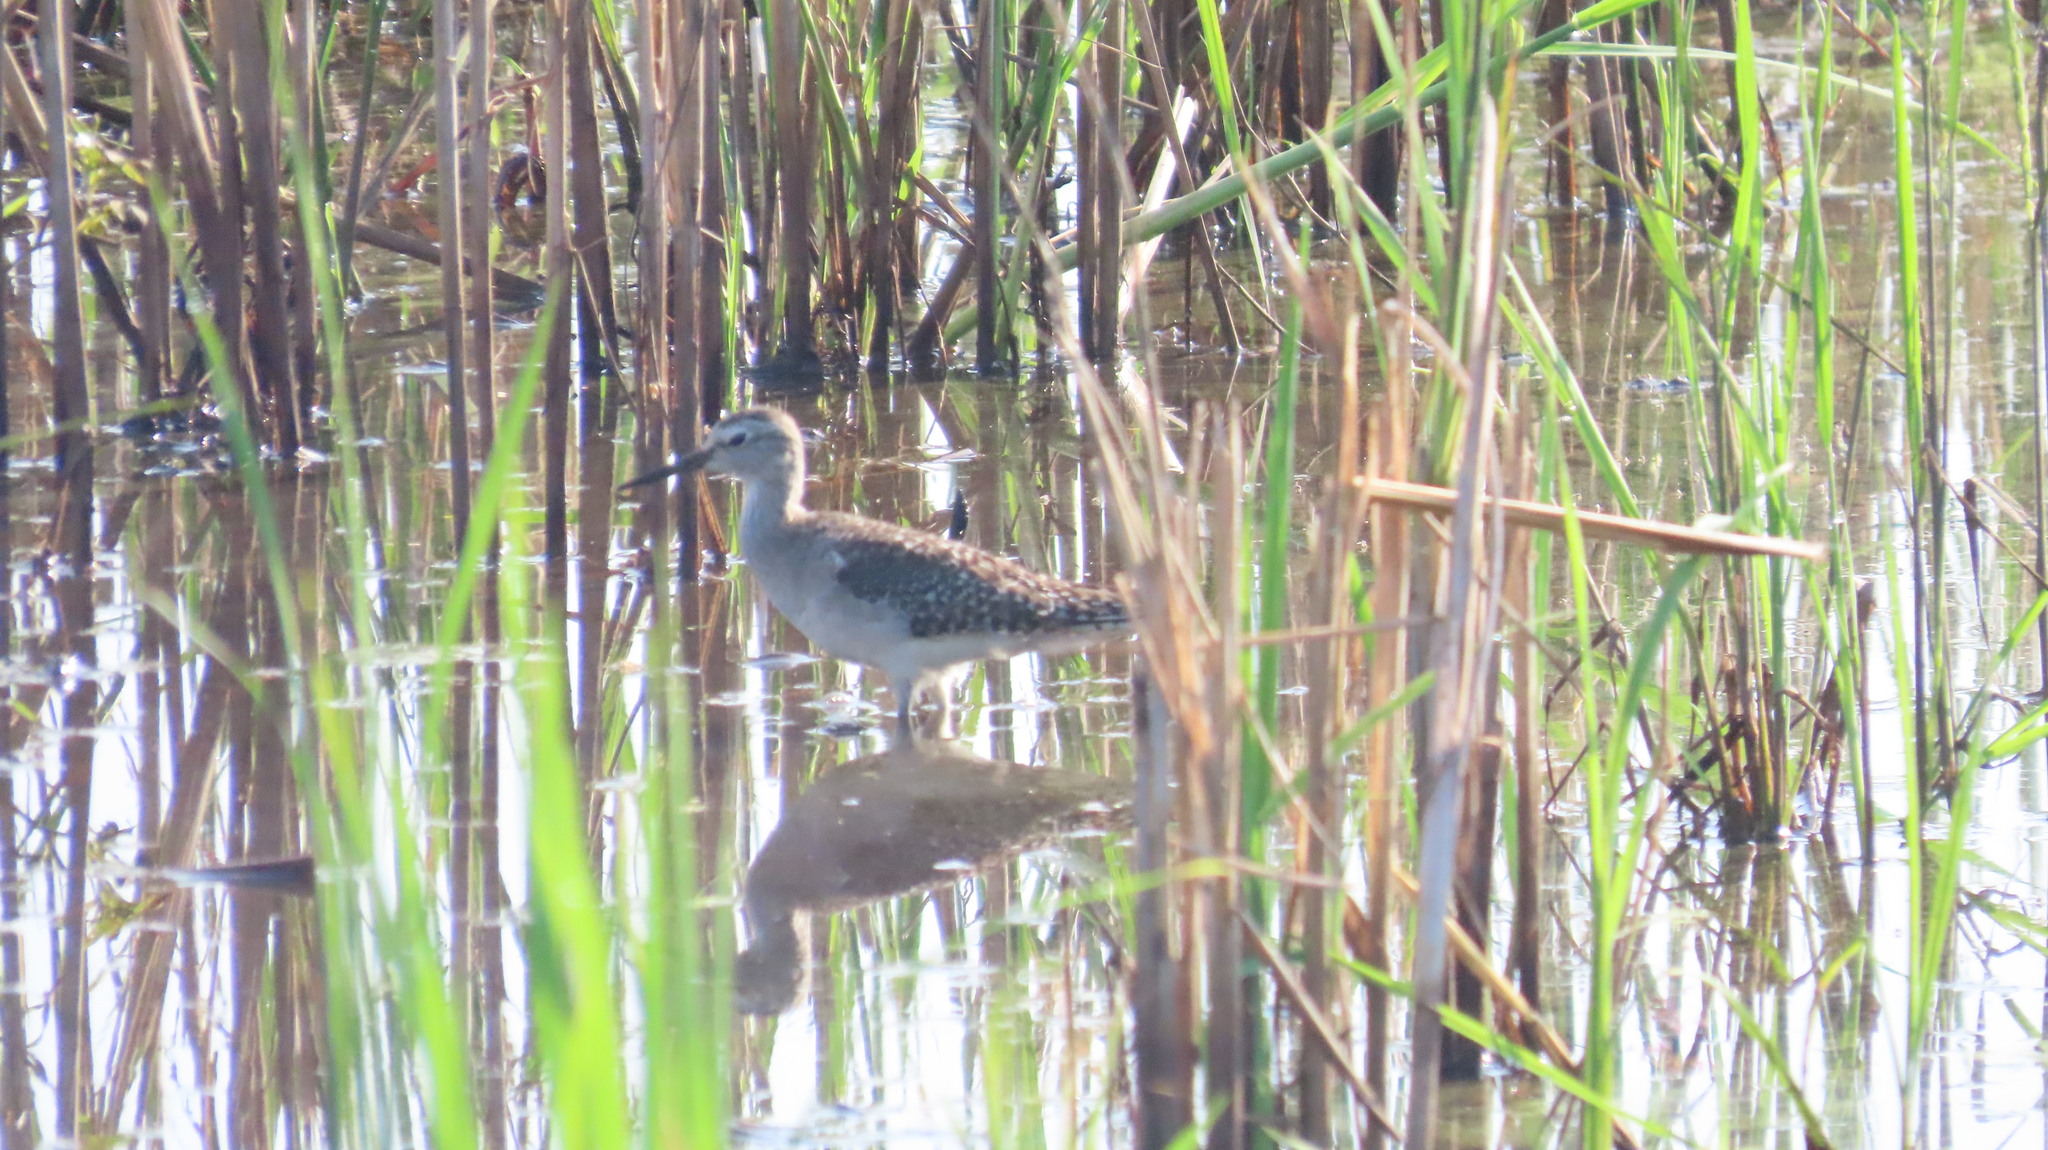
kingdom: Animalia
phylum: Chordata
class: Aves
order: Charadriiformes
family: Scolopacidae
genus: Tringa
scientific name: Tringa glareola
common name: Wood sandpiper
